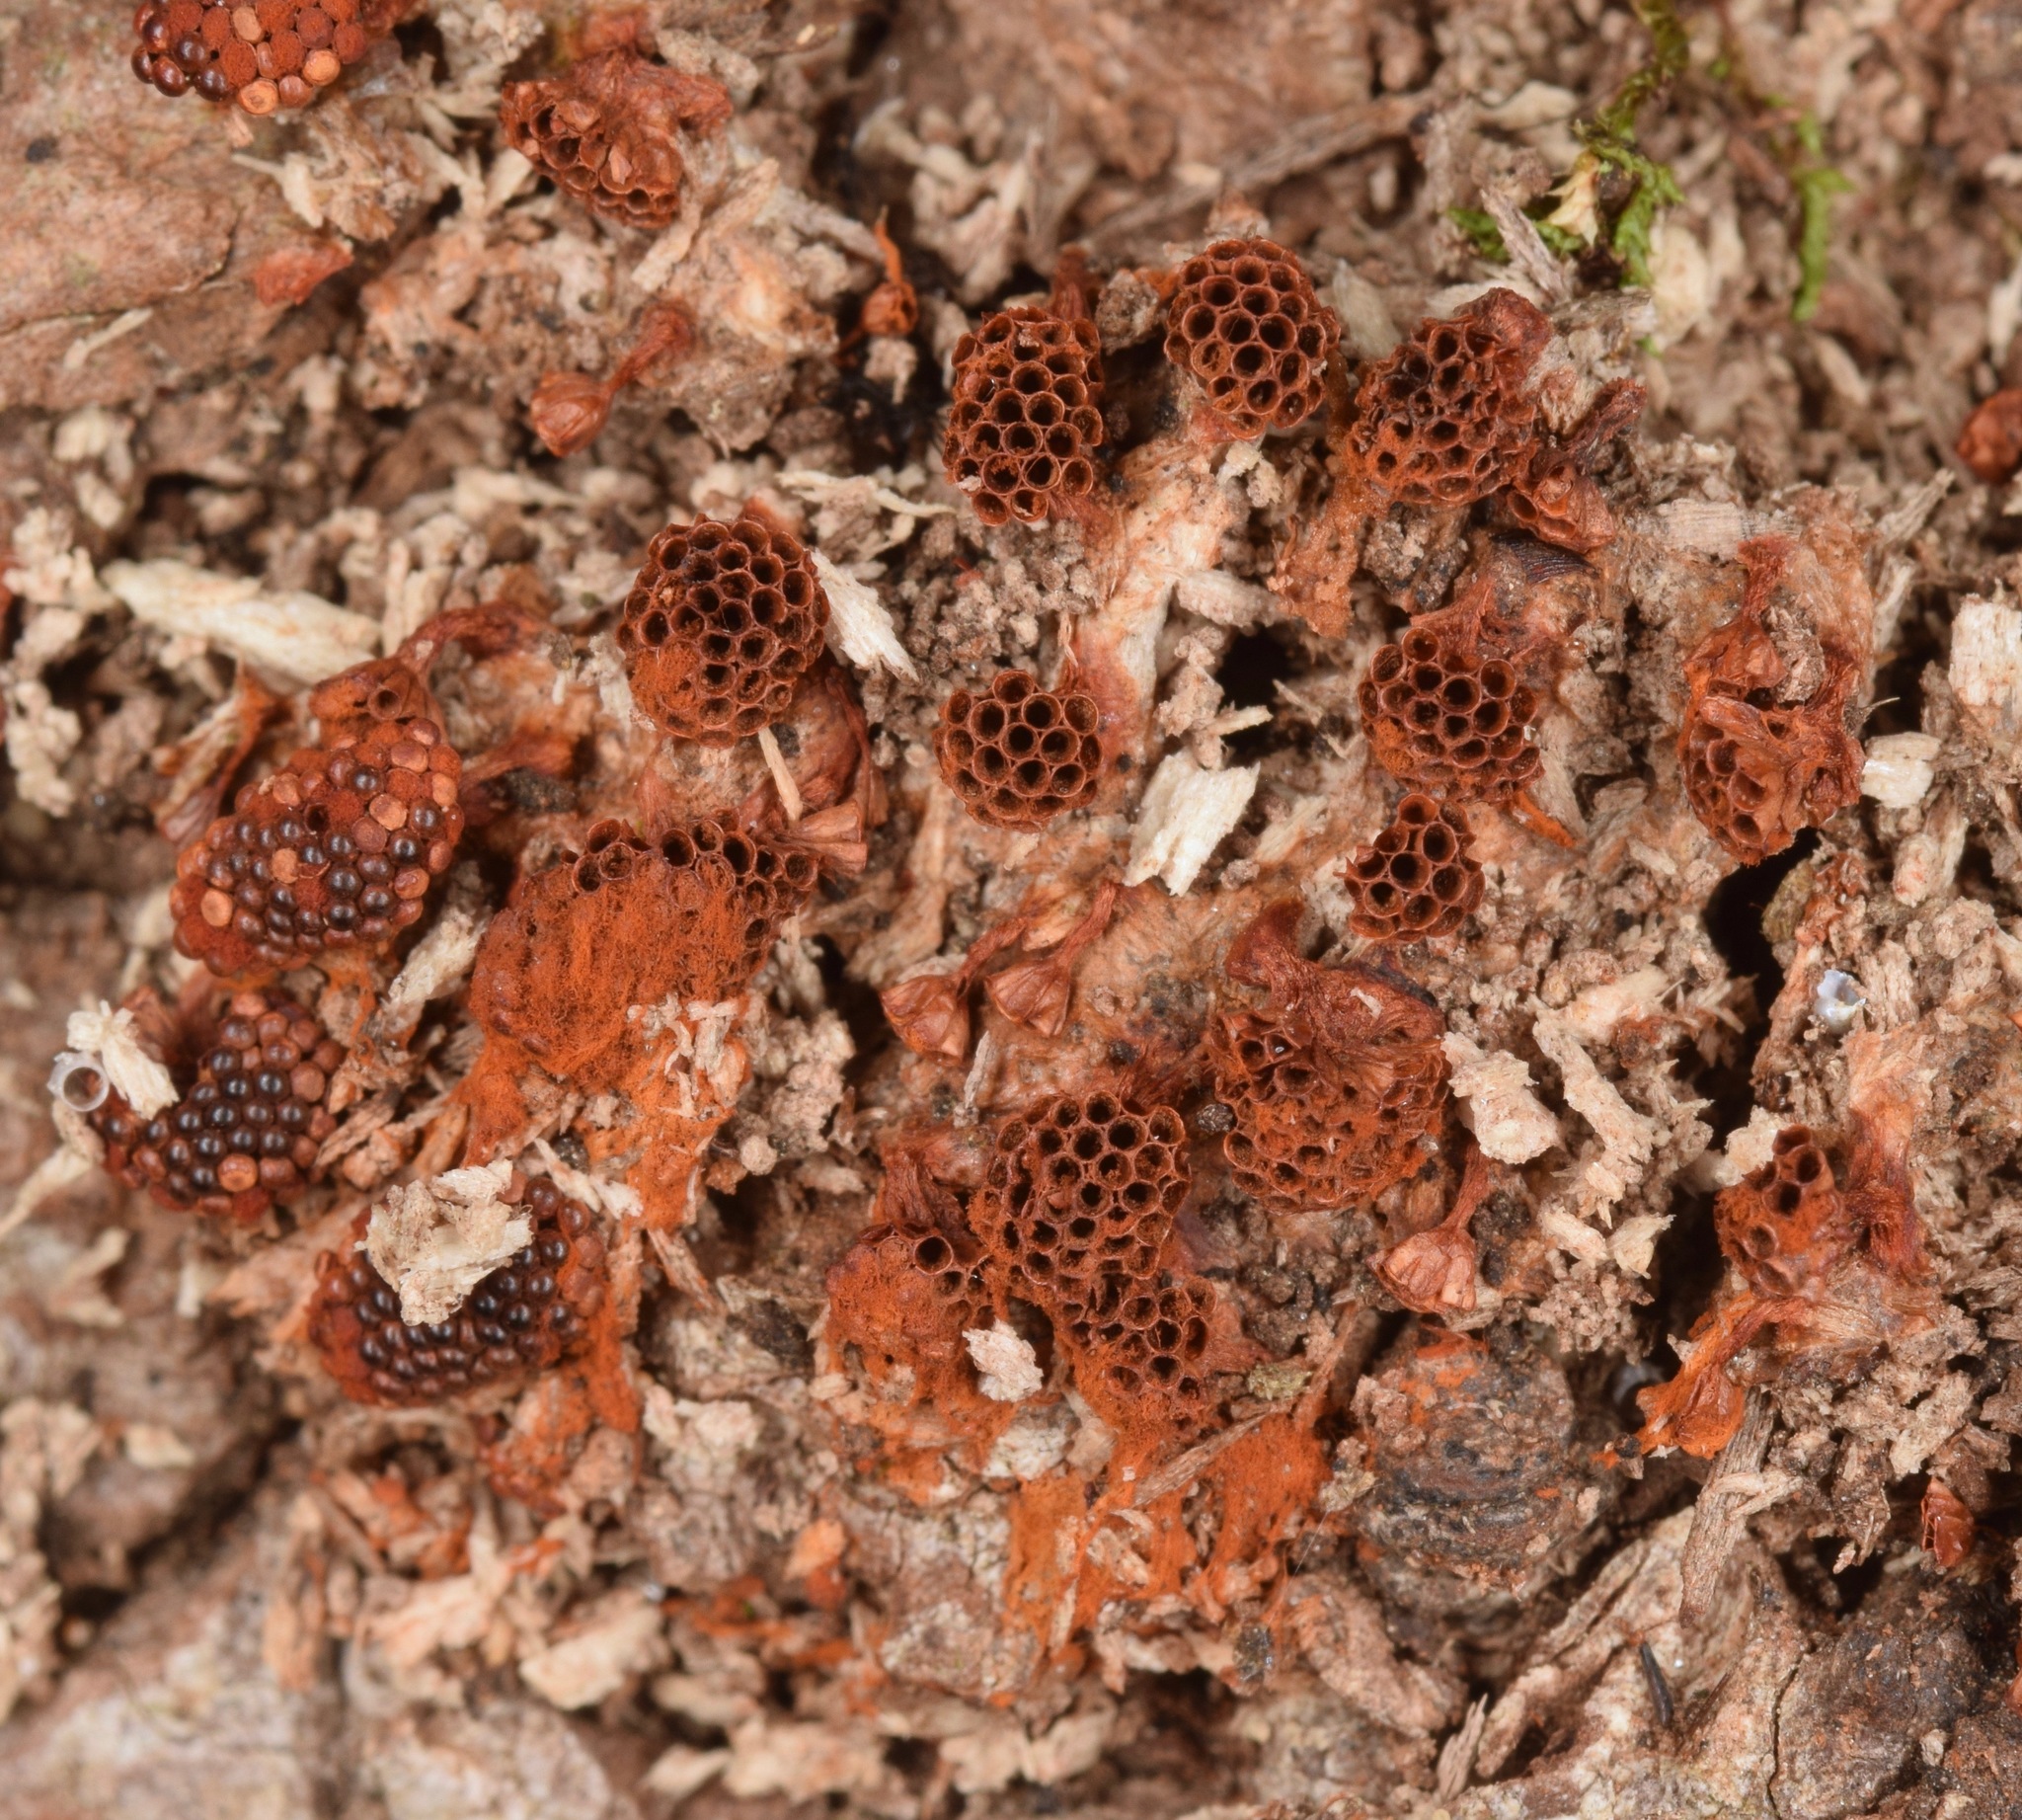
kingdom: Protozoa
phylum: Mycetozoa
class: Myxomycetes
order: Trichiales
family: Trichiaceae
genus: Metatrichia
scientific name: Metatrichia vesparia
